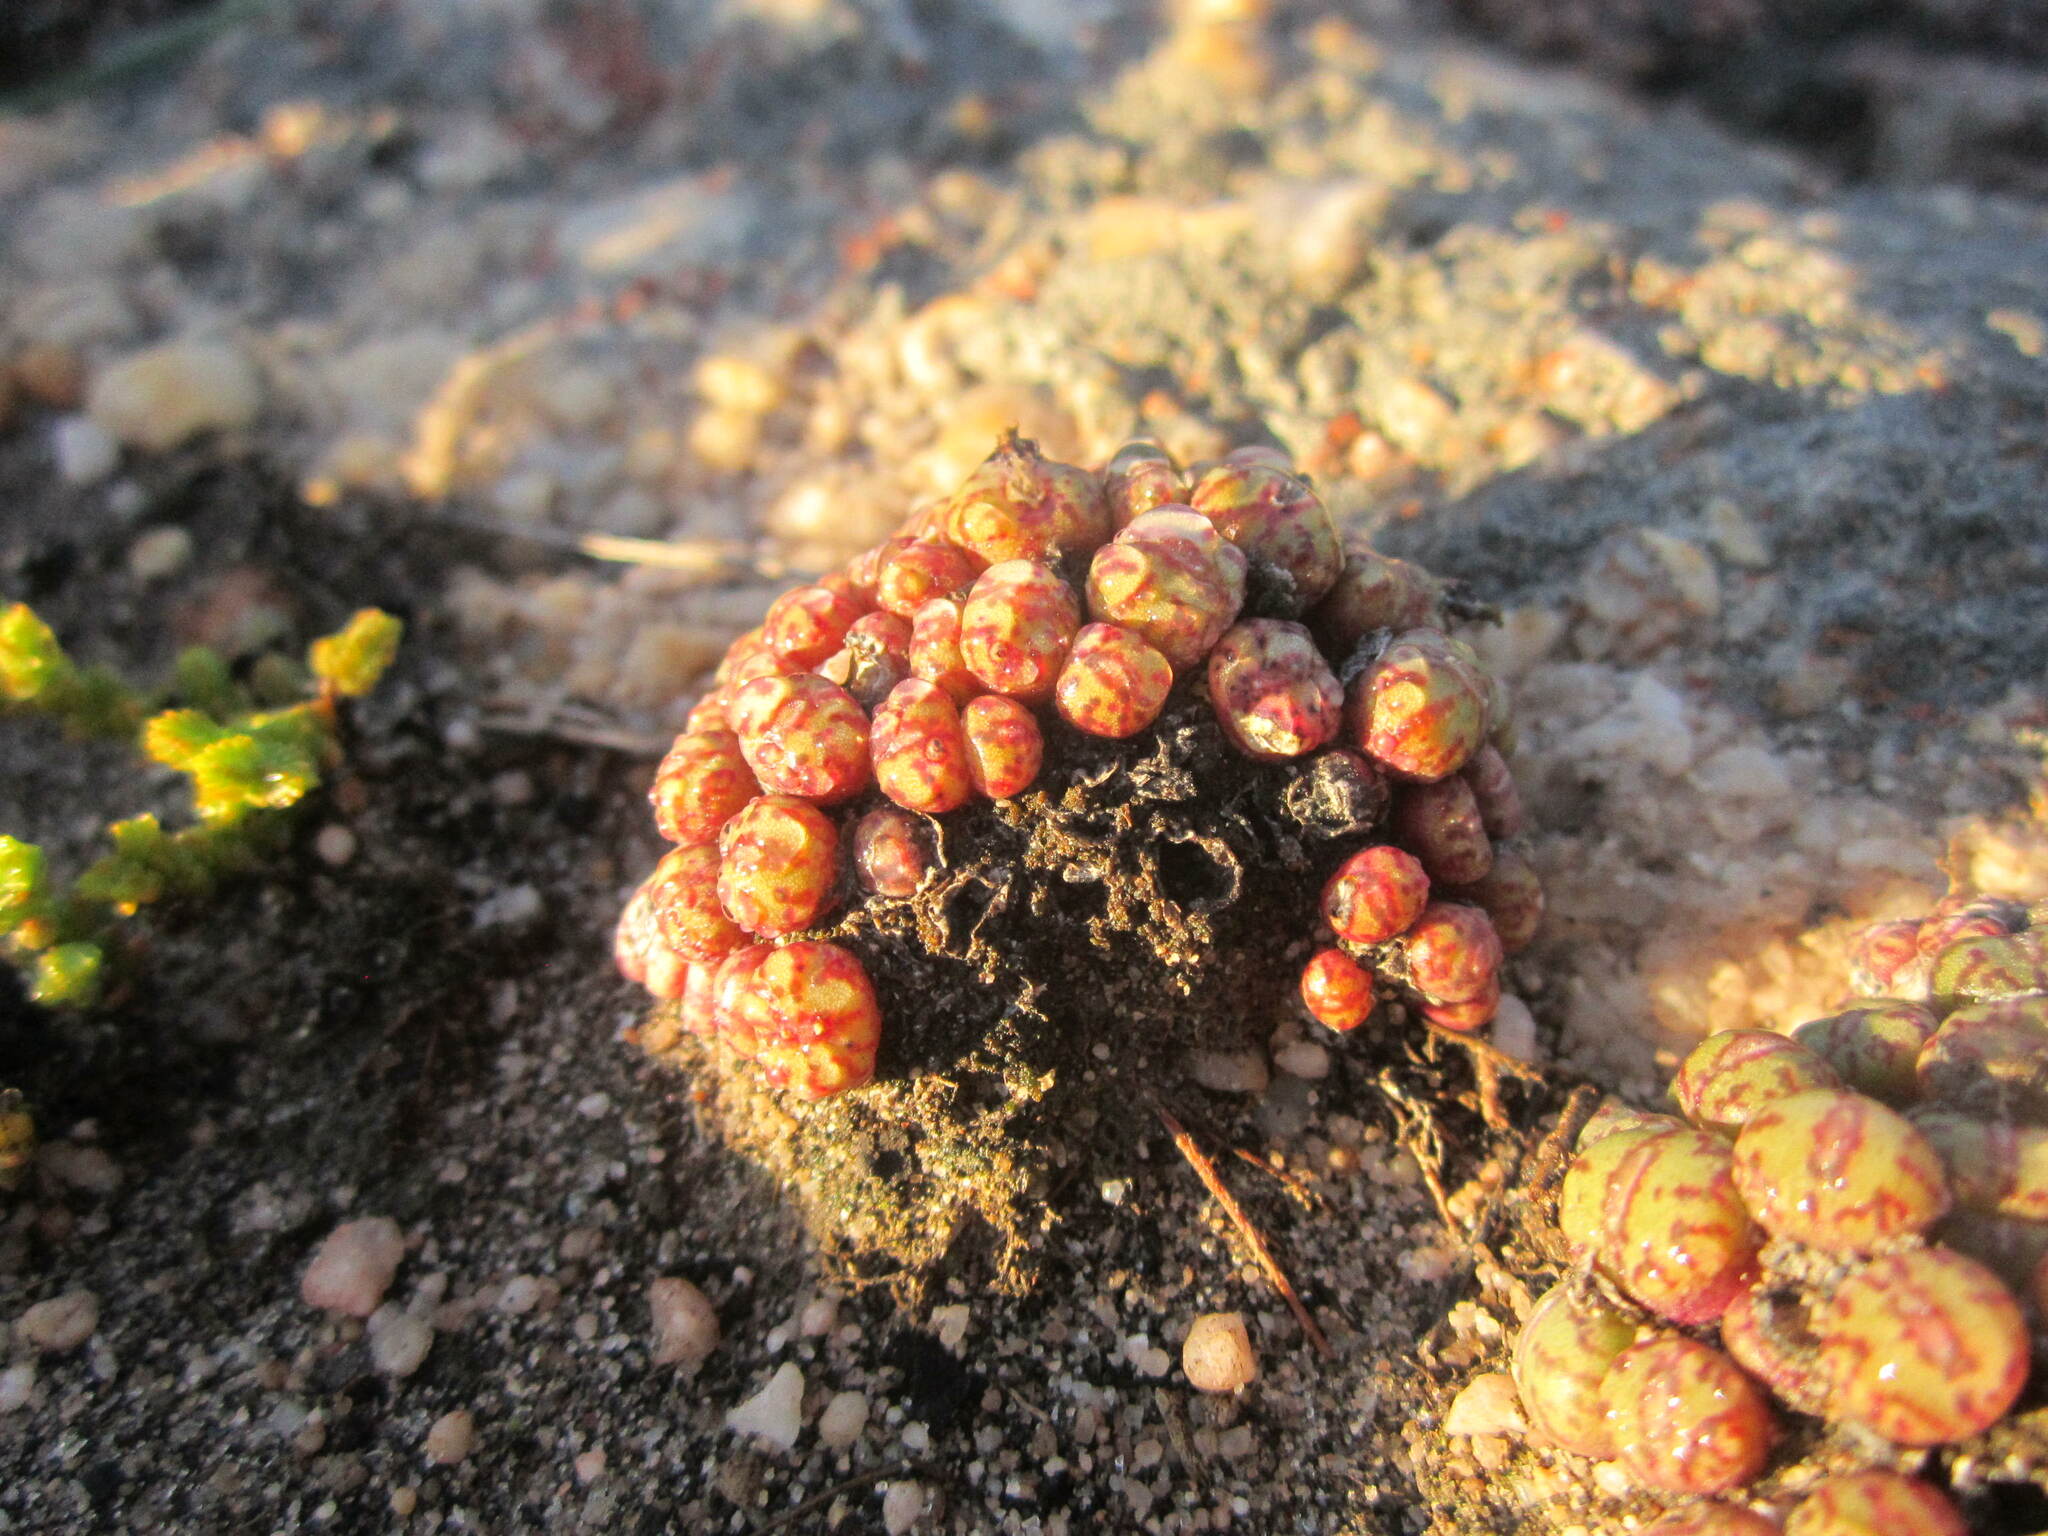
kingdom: Plantae
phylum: Tracheophyta
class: Magnoliopsida
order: Caryophyllales
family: Aizoaceae
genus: Conophytum
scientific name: Conophytum obcordellum
